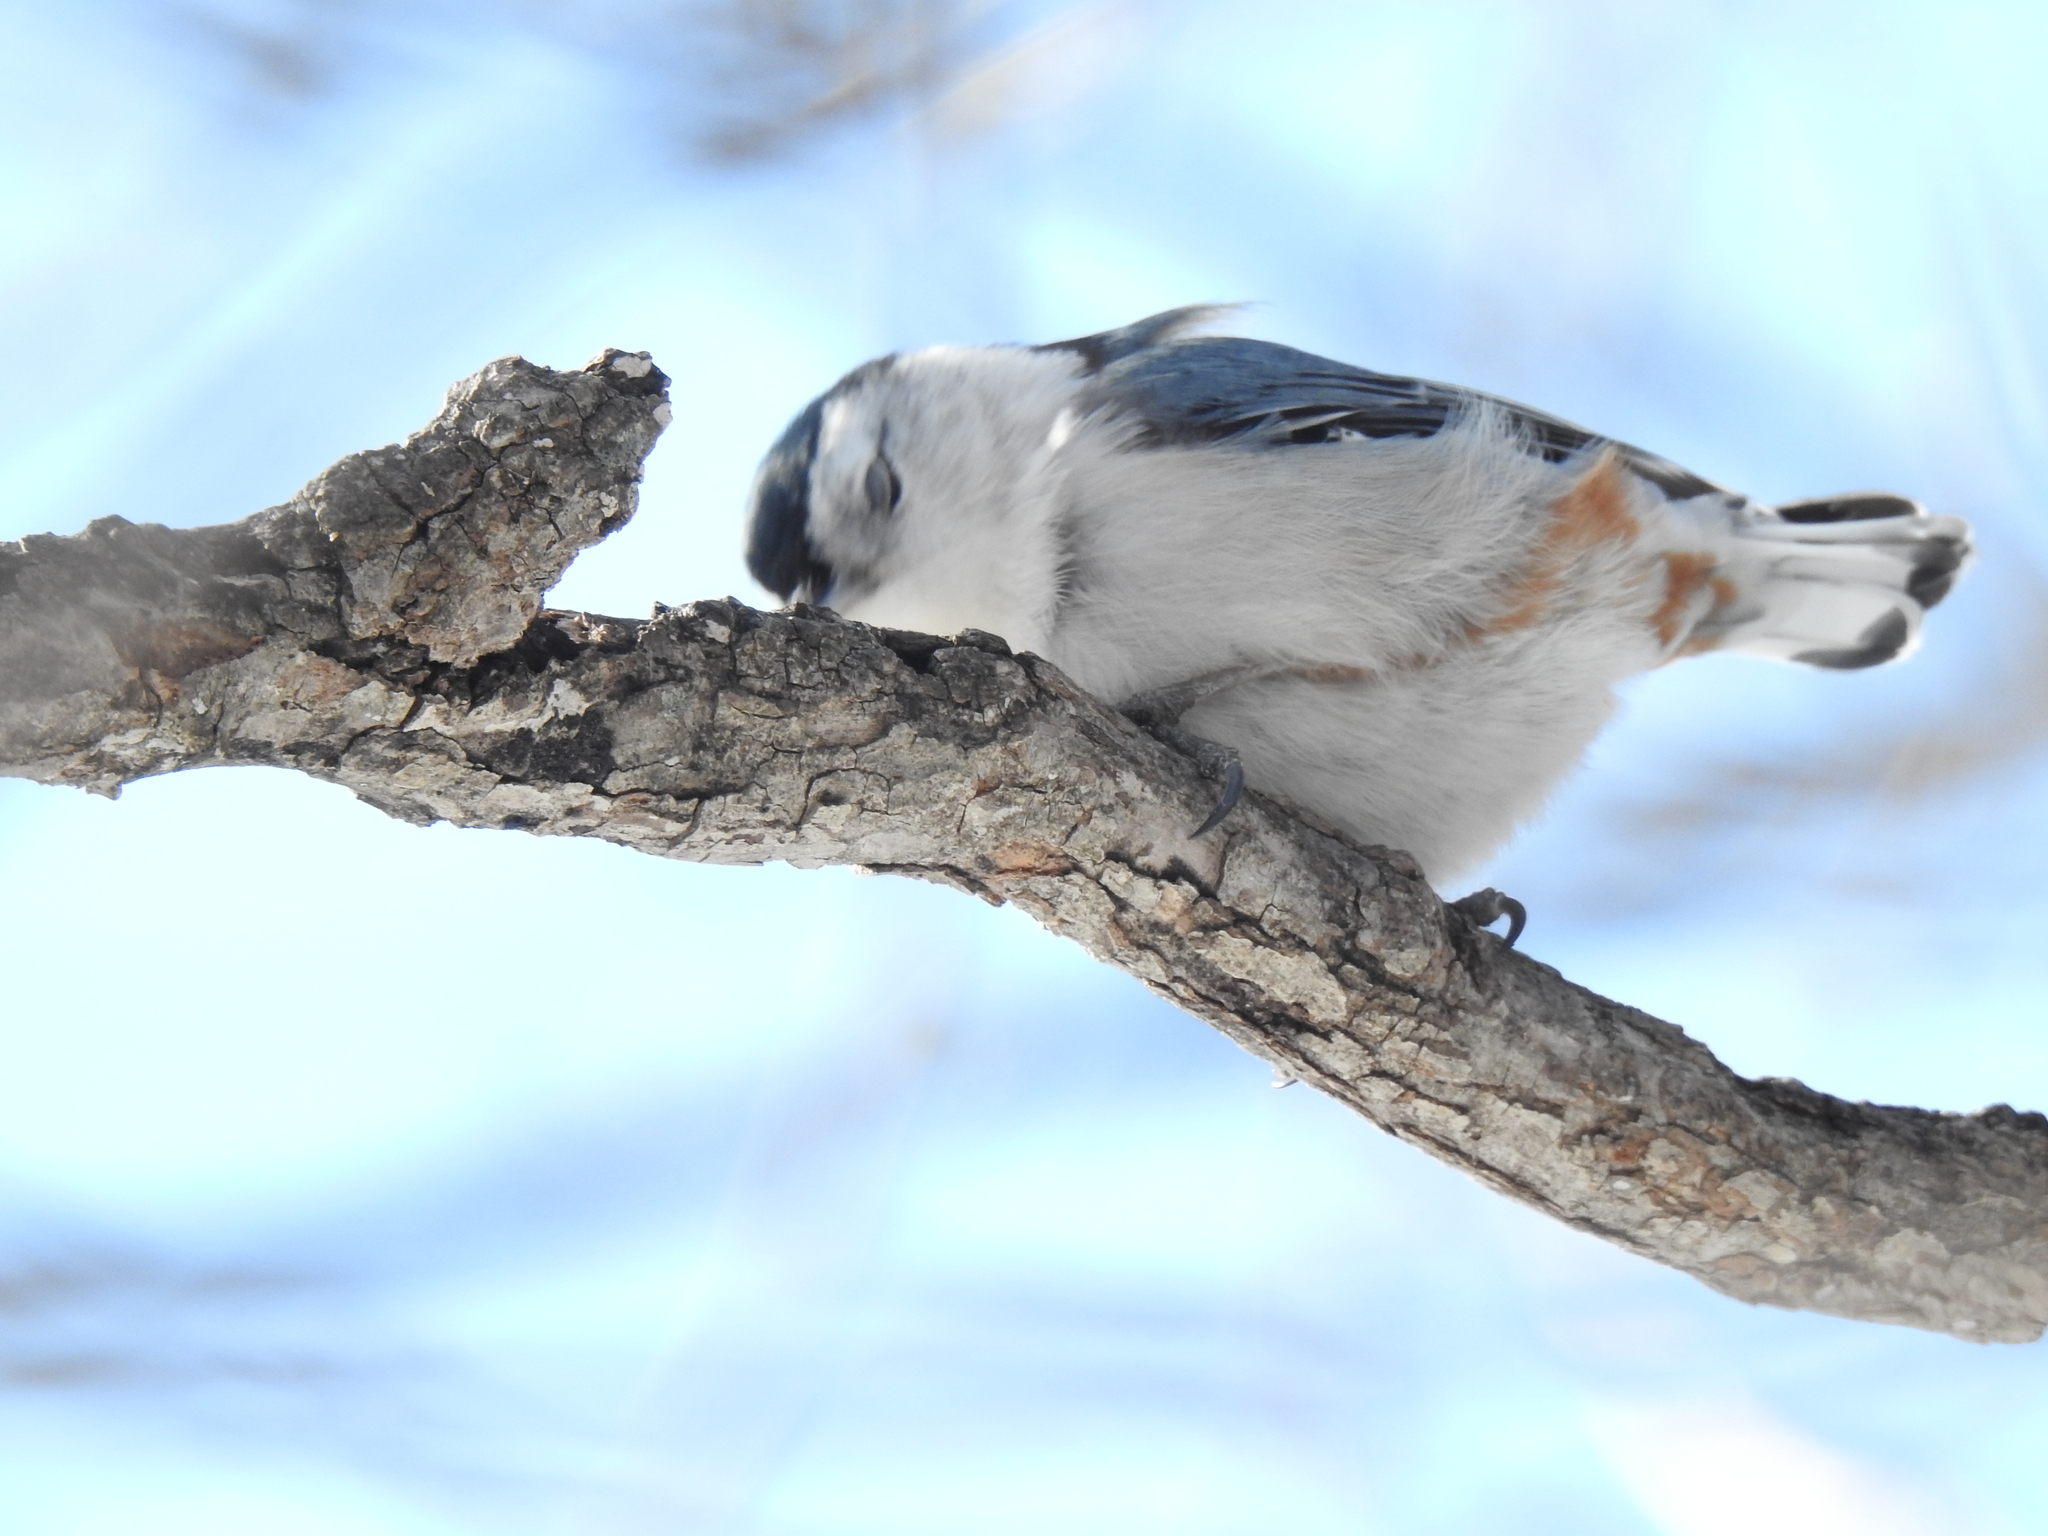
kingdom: Animalia
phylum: Chordata
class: Aves
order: Passeriformes
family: Sittidae
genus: Sitta
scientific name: Sitta carolinensis
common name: White-breasted nuthatch
